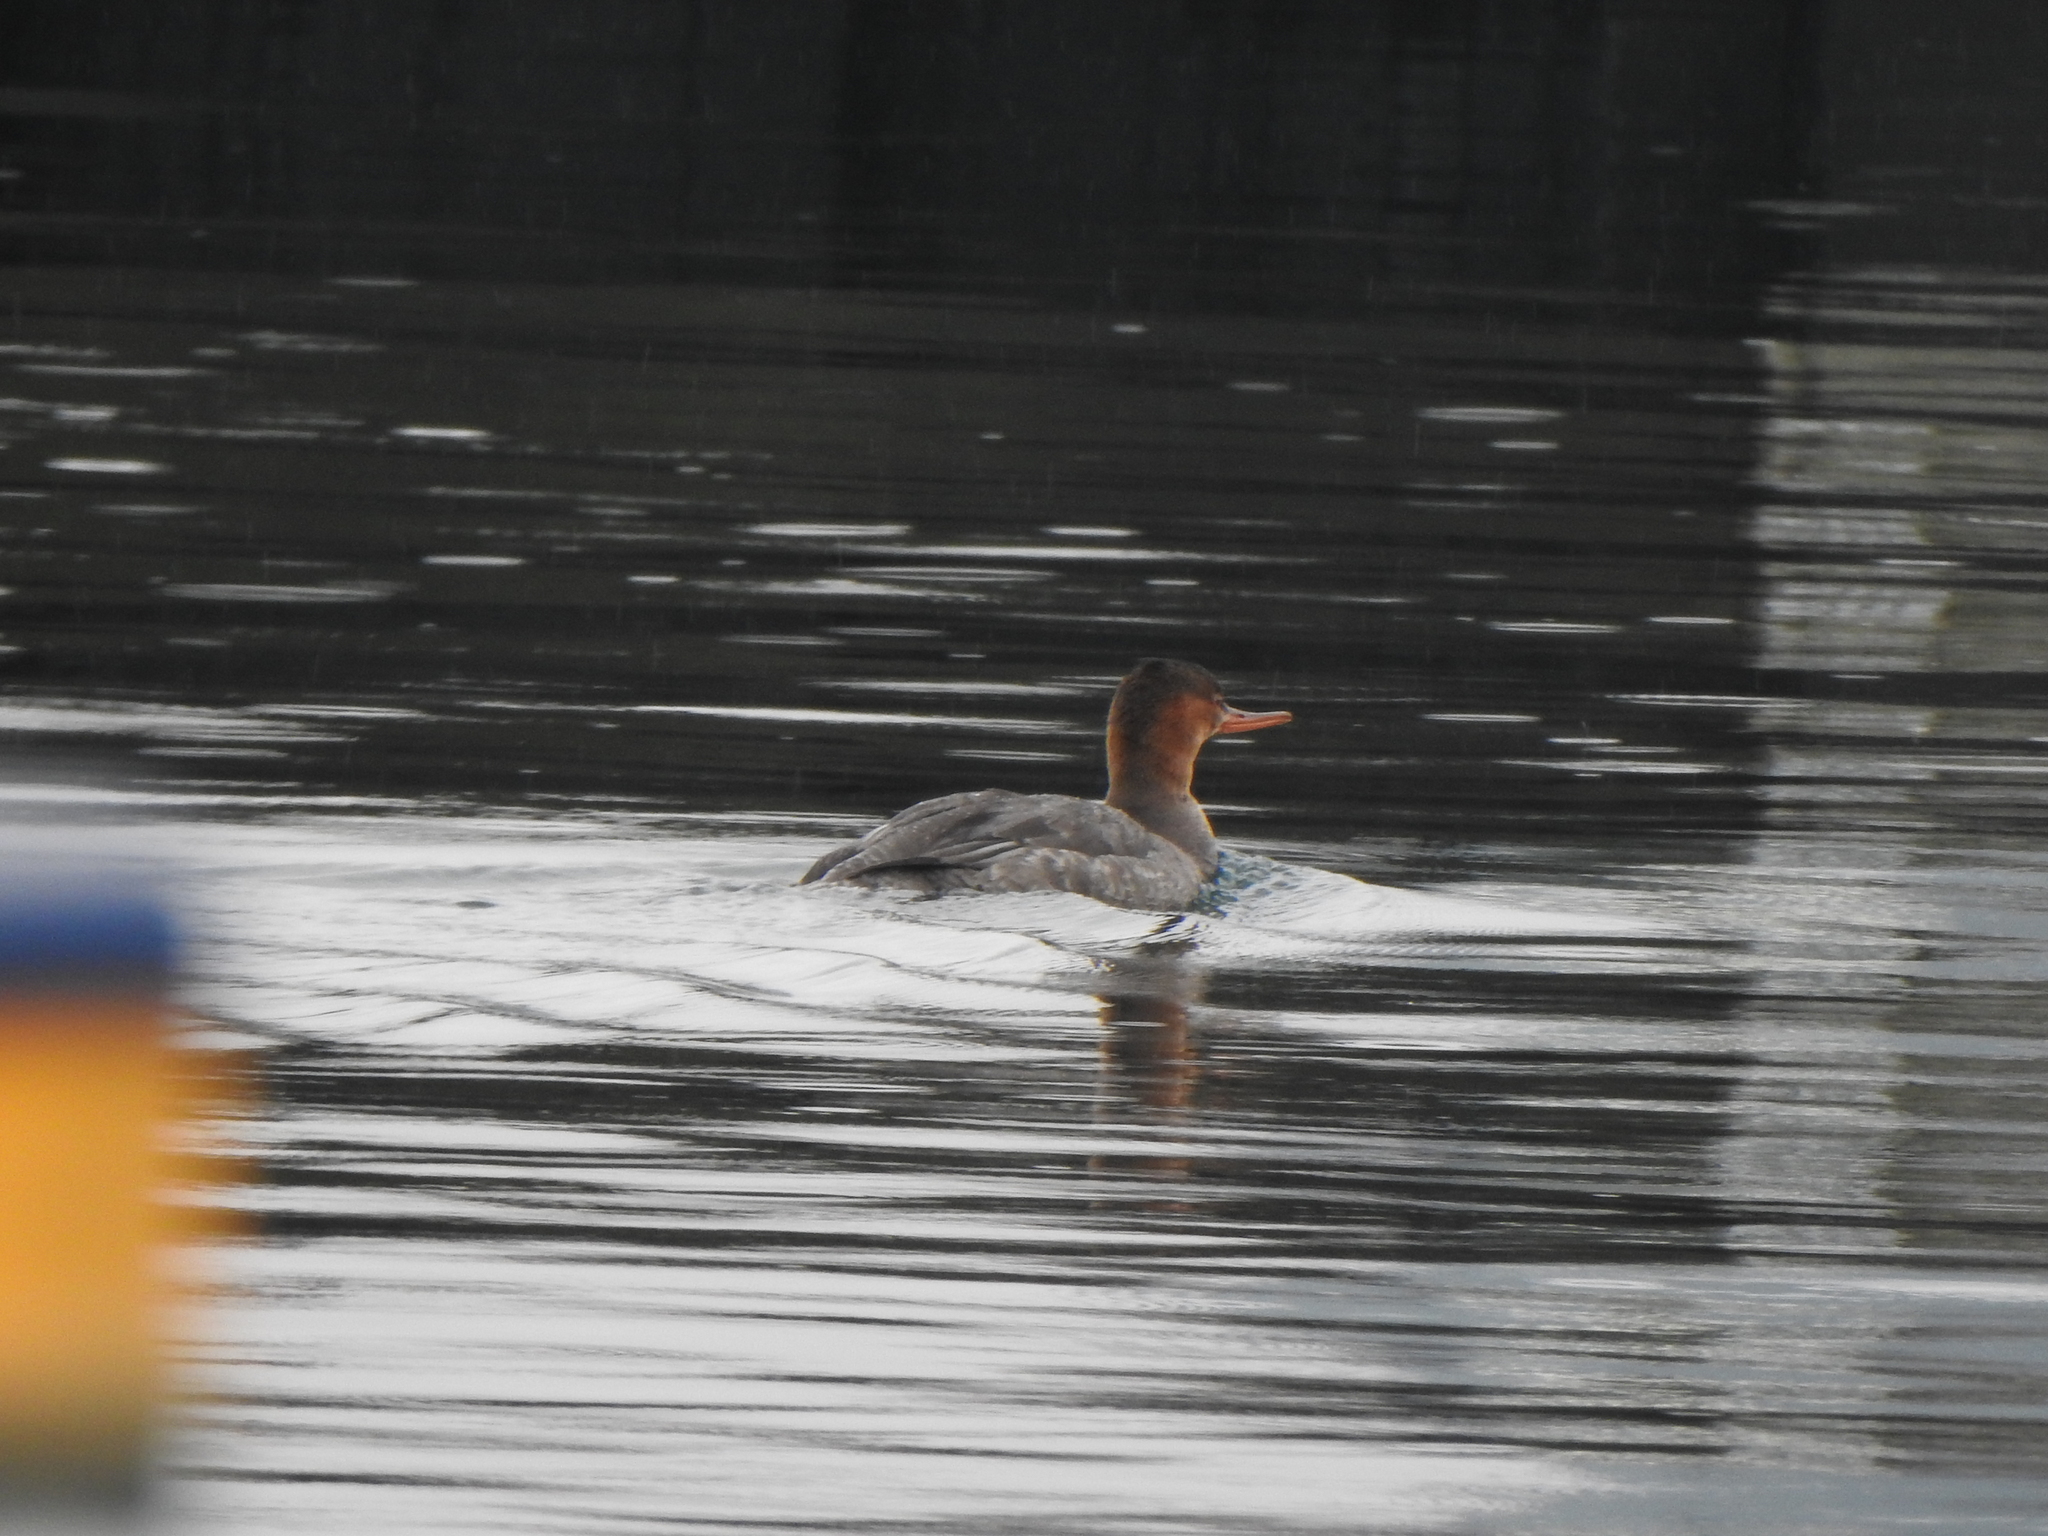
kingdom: Animalia
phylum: Chordata
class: Aves
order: Anseriformes
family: Anatidae
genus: Mergus
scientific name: Mergus serrator
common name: Red-breasted merganser
